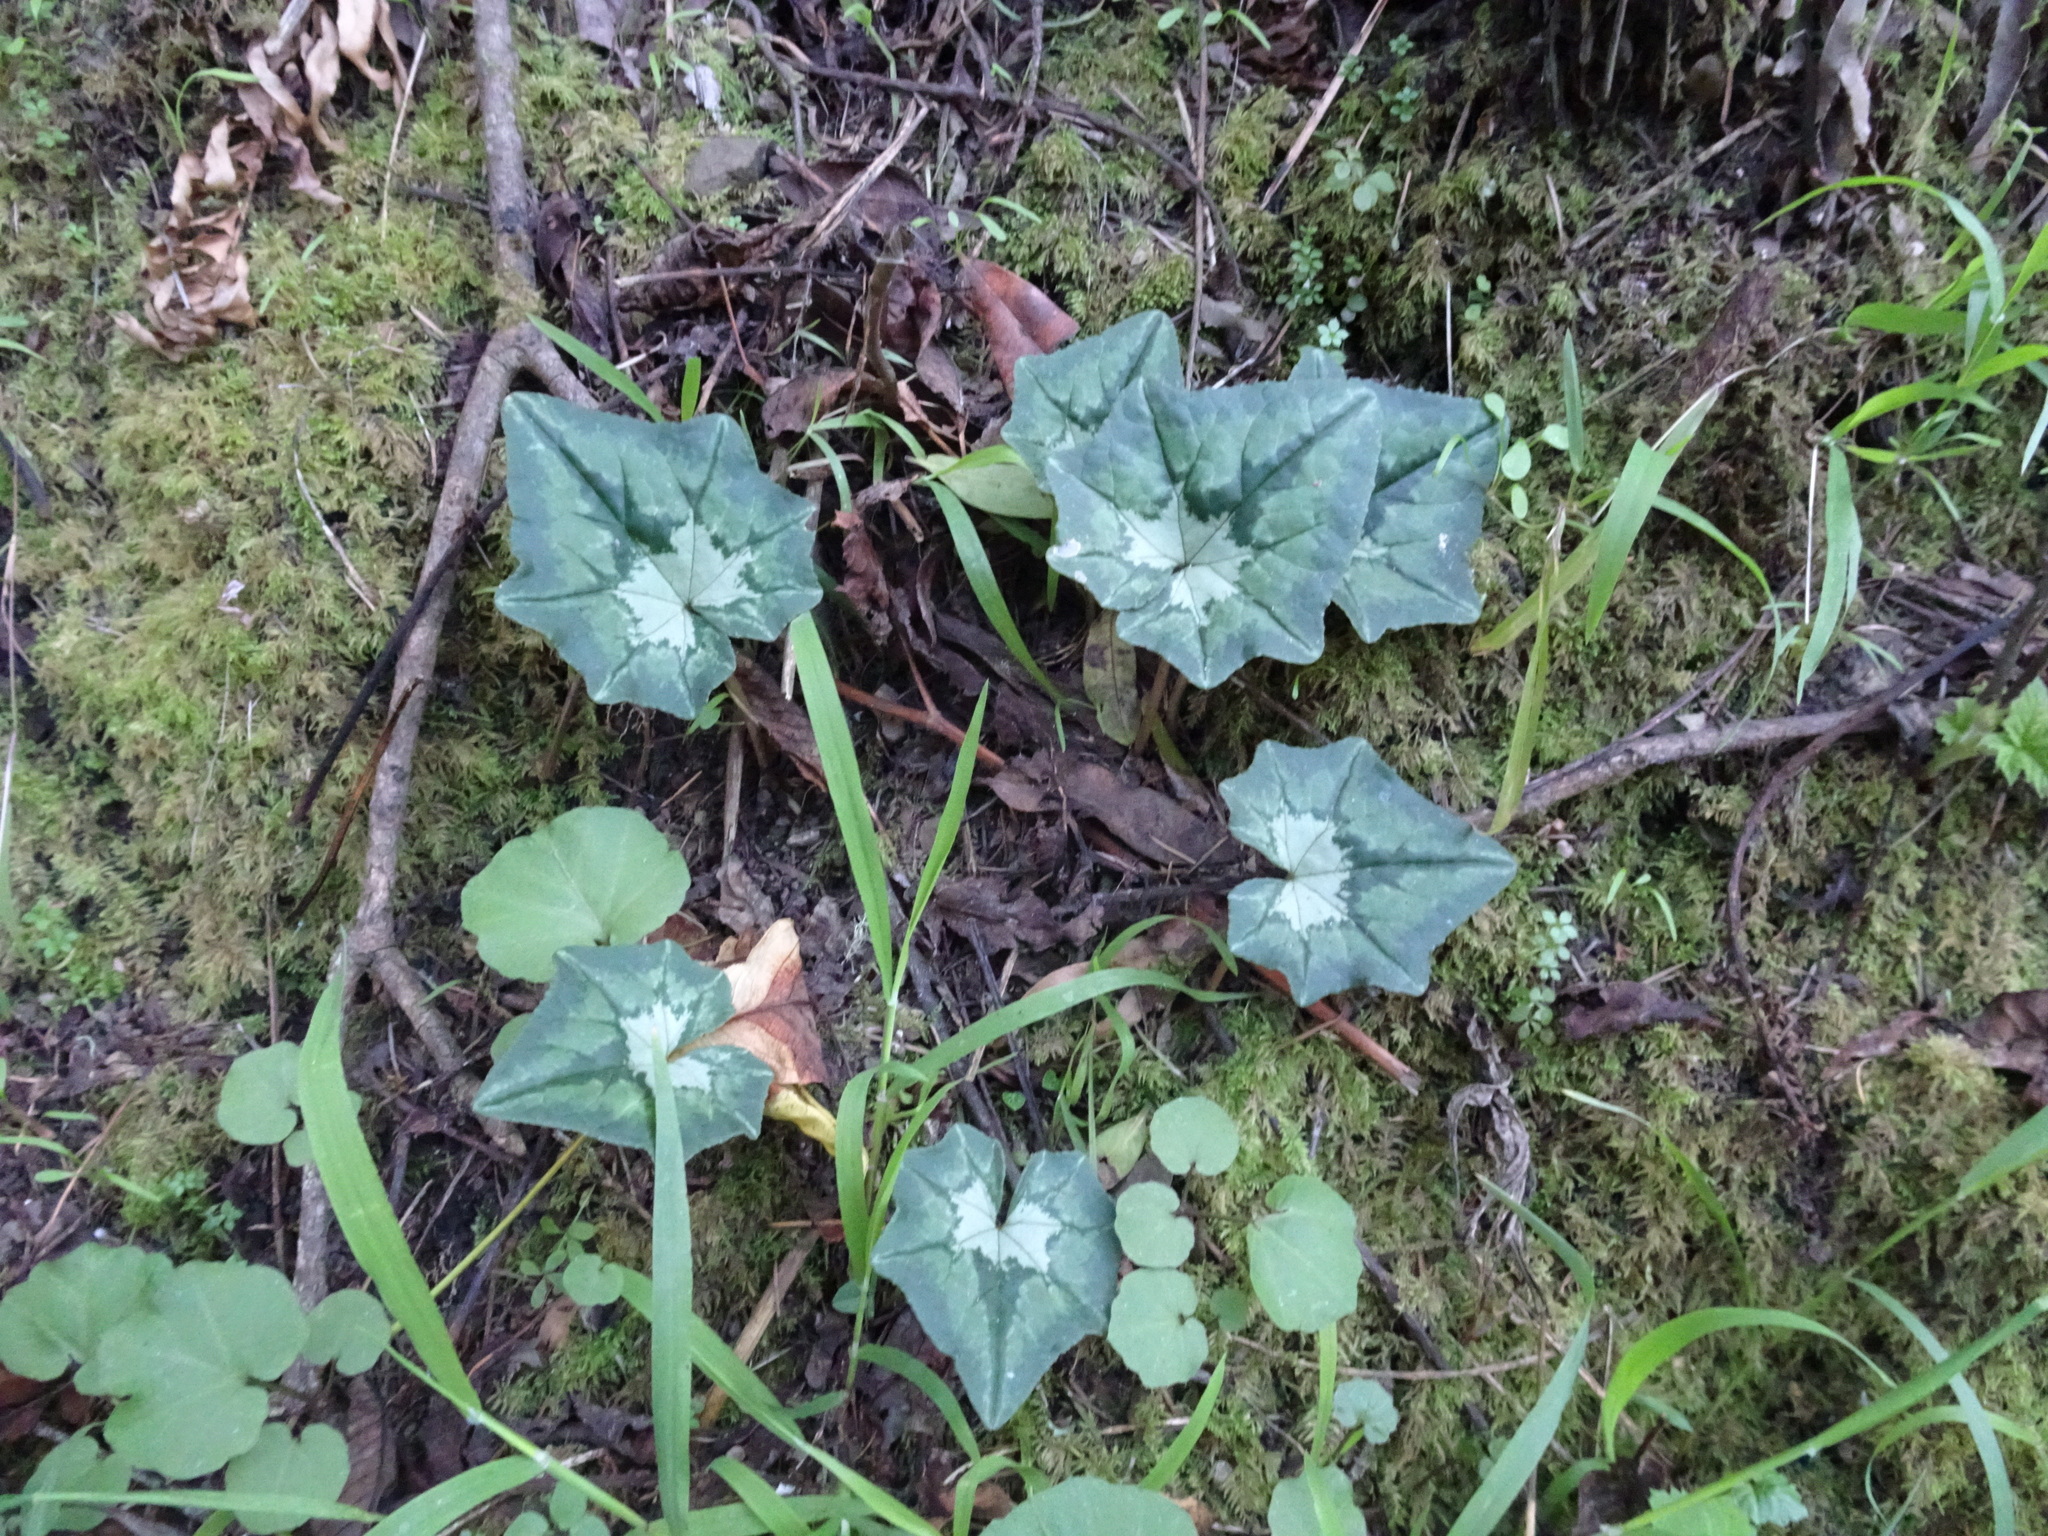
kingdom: Plantae
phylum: Tracheophyta
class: Magnoliopsida
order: Ericales
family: Primulaceae
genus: Cyclamen
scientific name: Cyclamen hederifolium
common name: Sowbread
